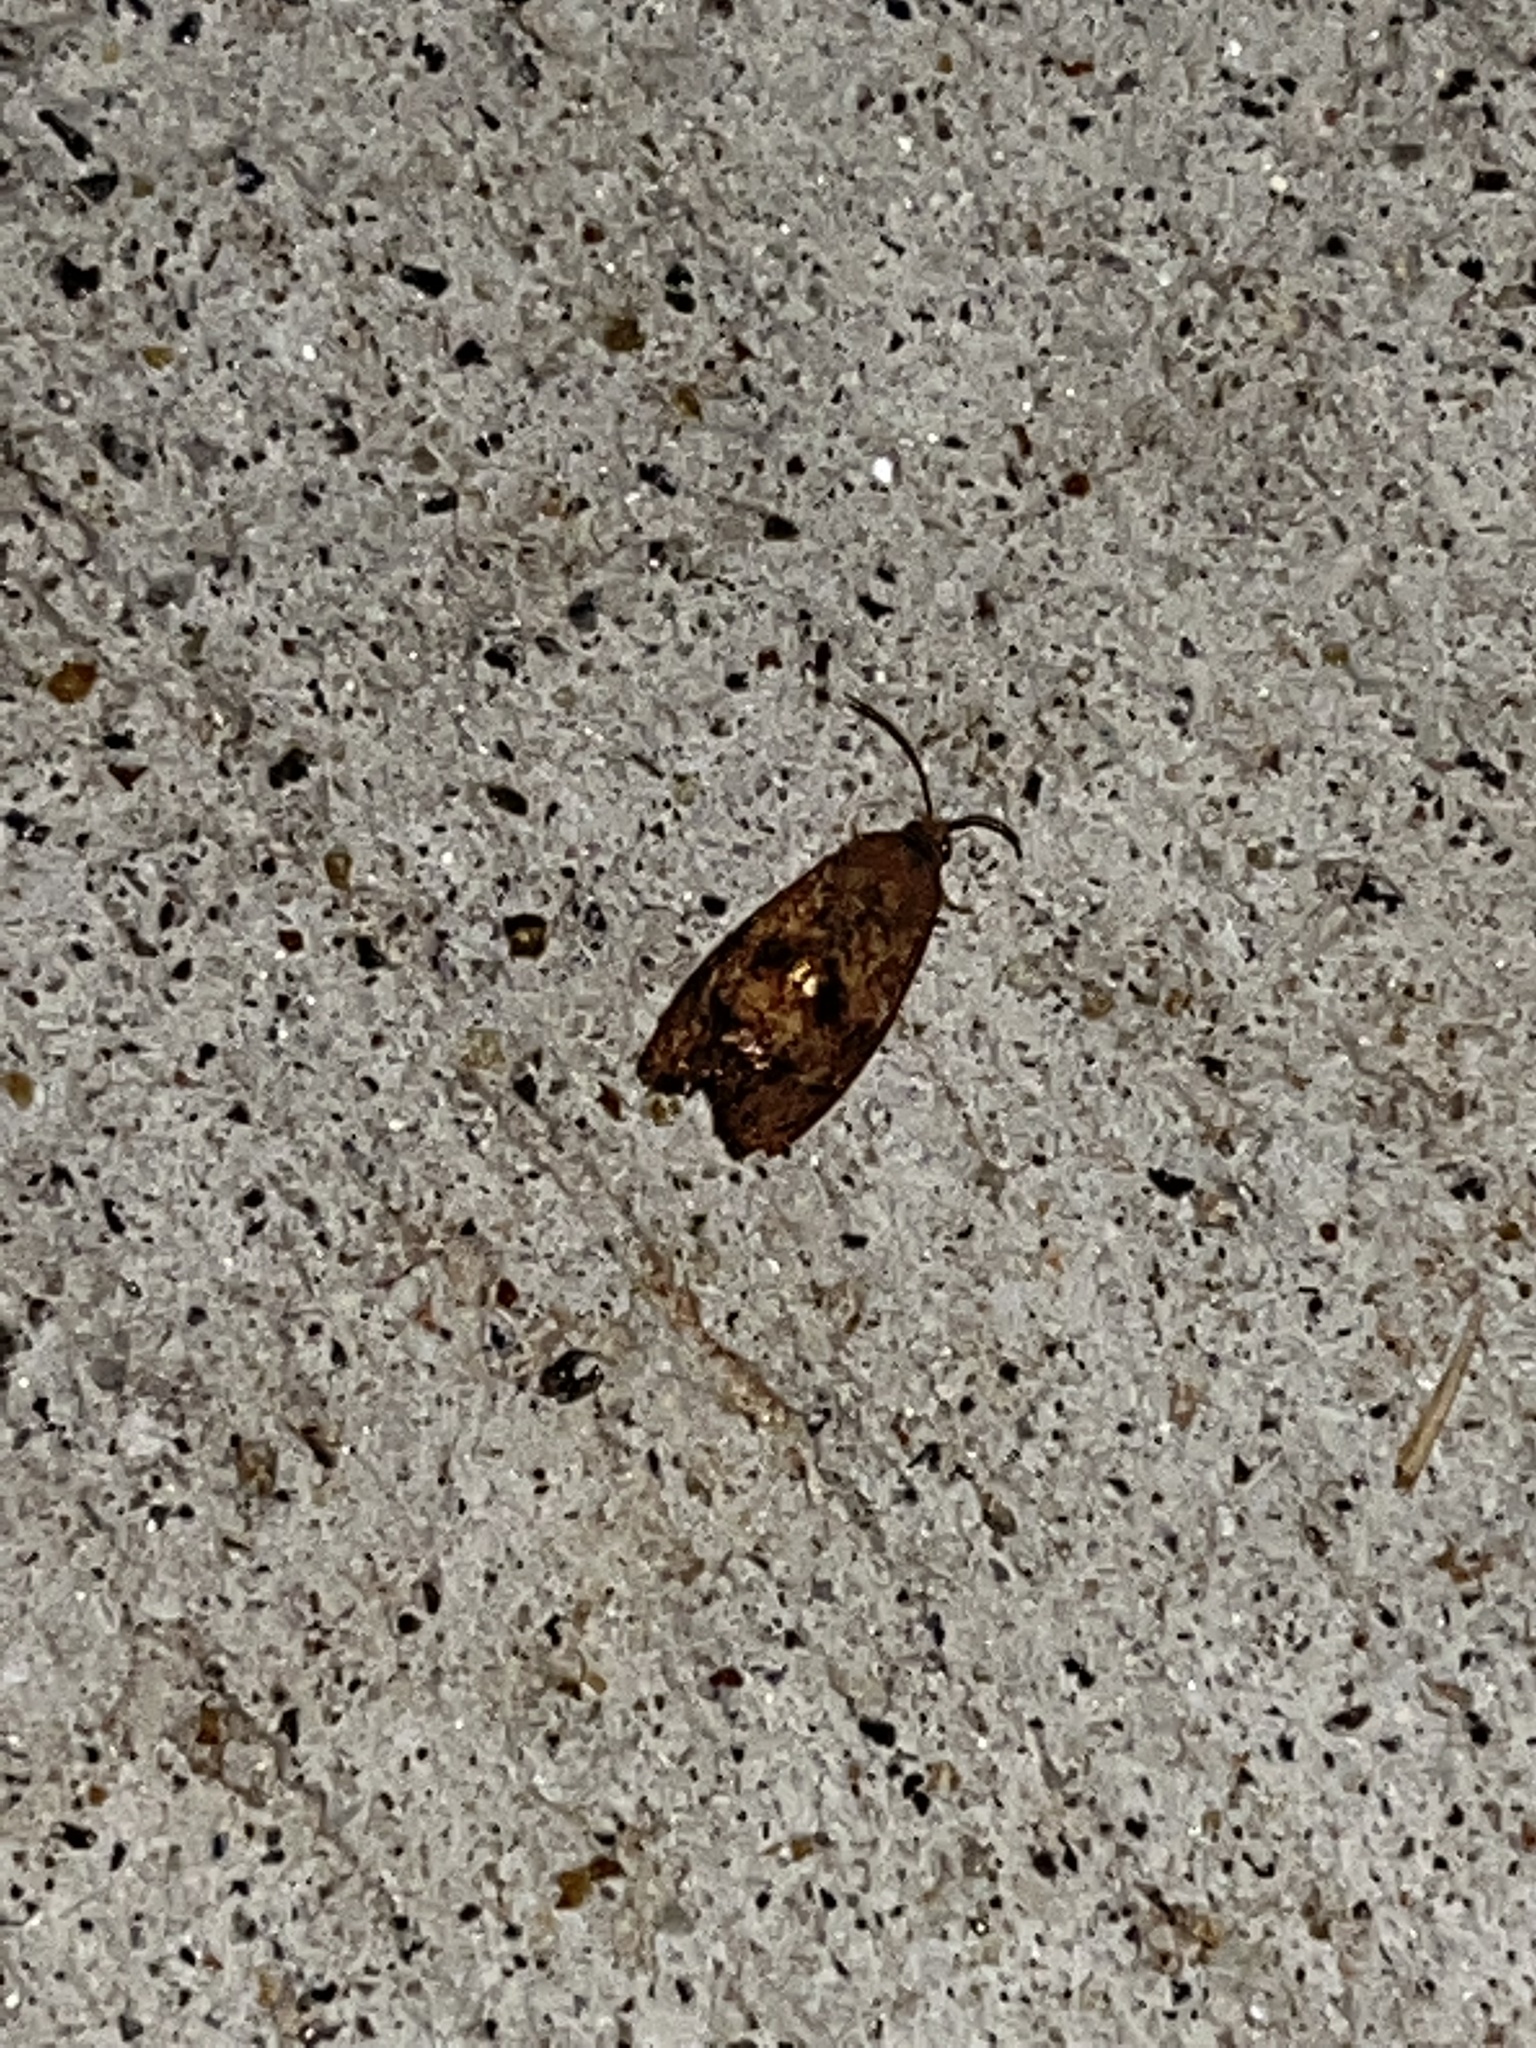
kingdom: Animalia
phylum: Arthropoda
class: Insecta
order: Lepidoptera
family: Tortricidae
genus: Cydia
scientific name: Cydia latiferreana
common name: Filbertworm moth
